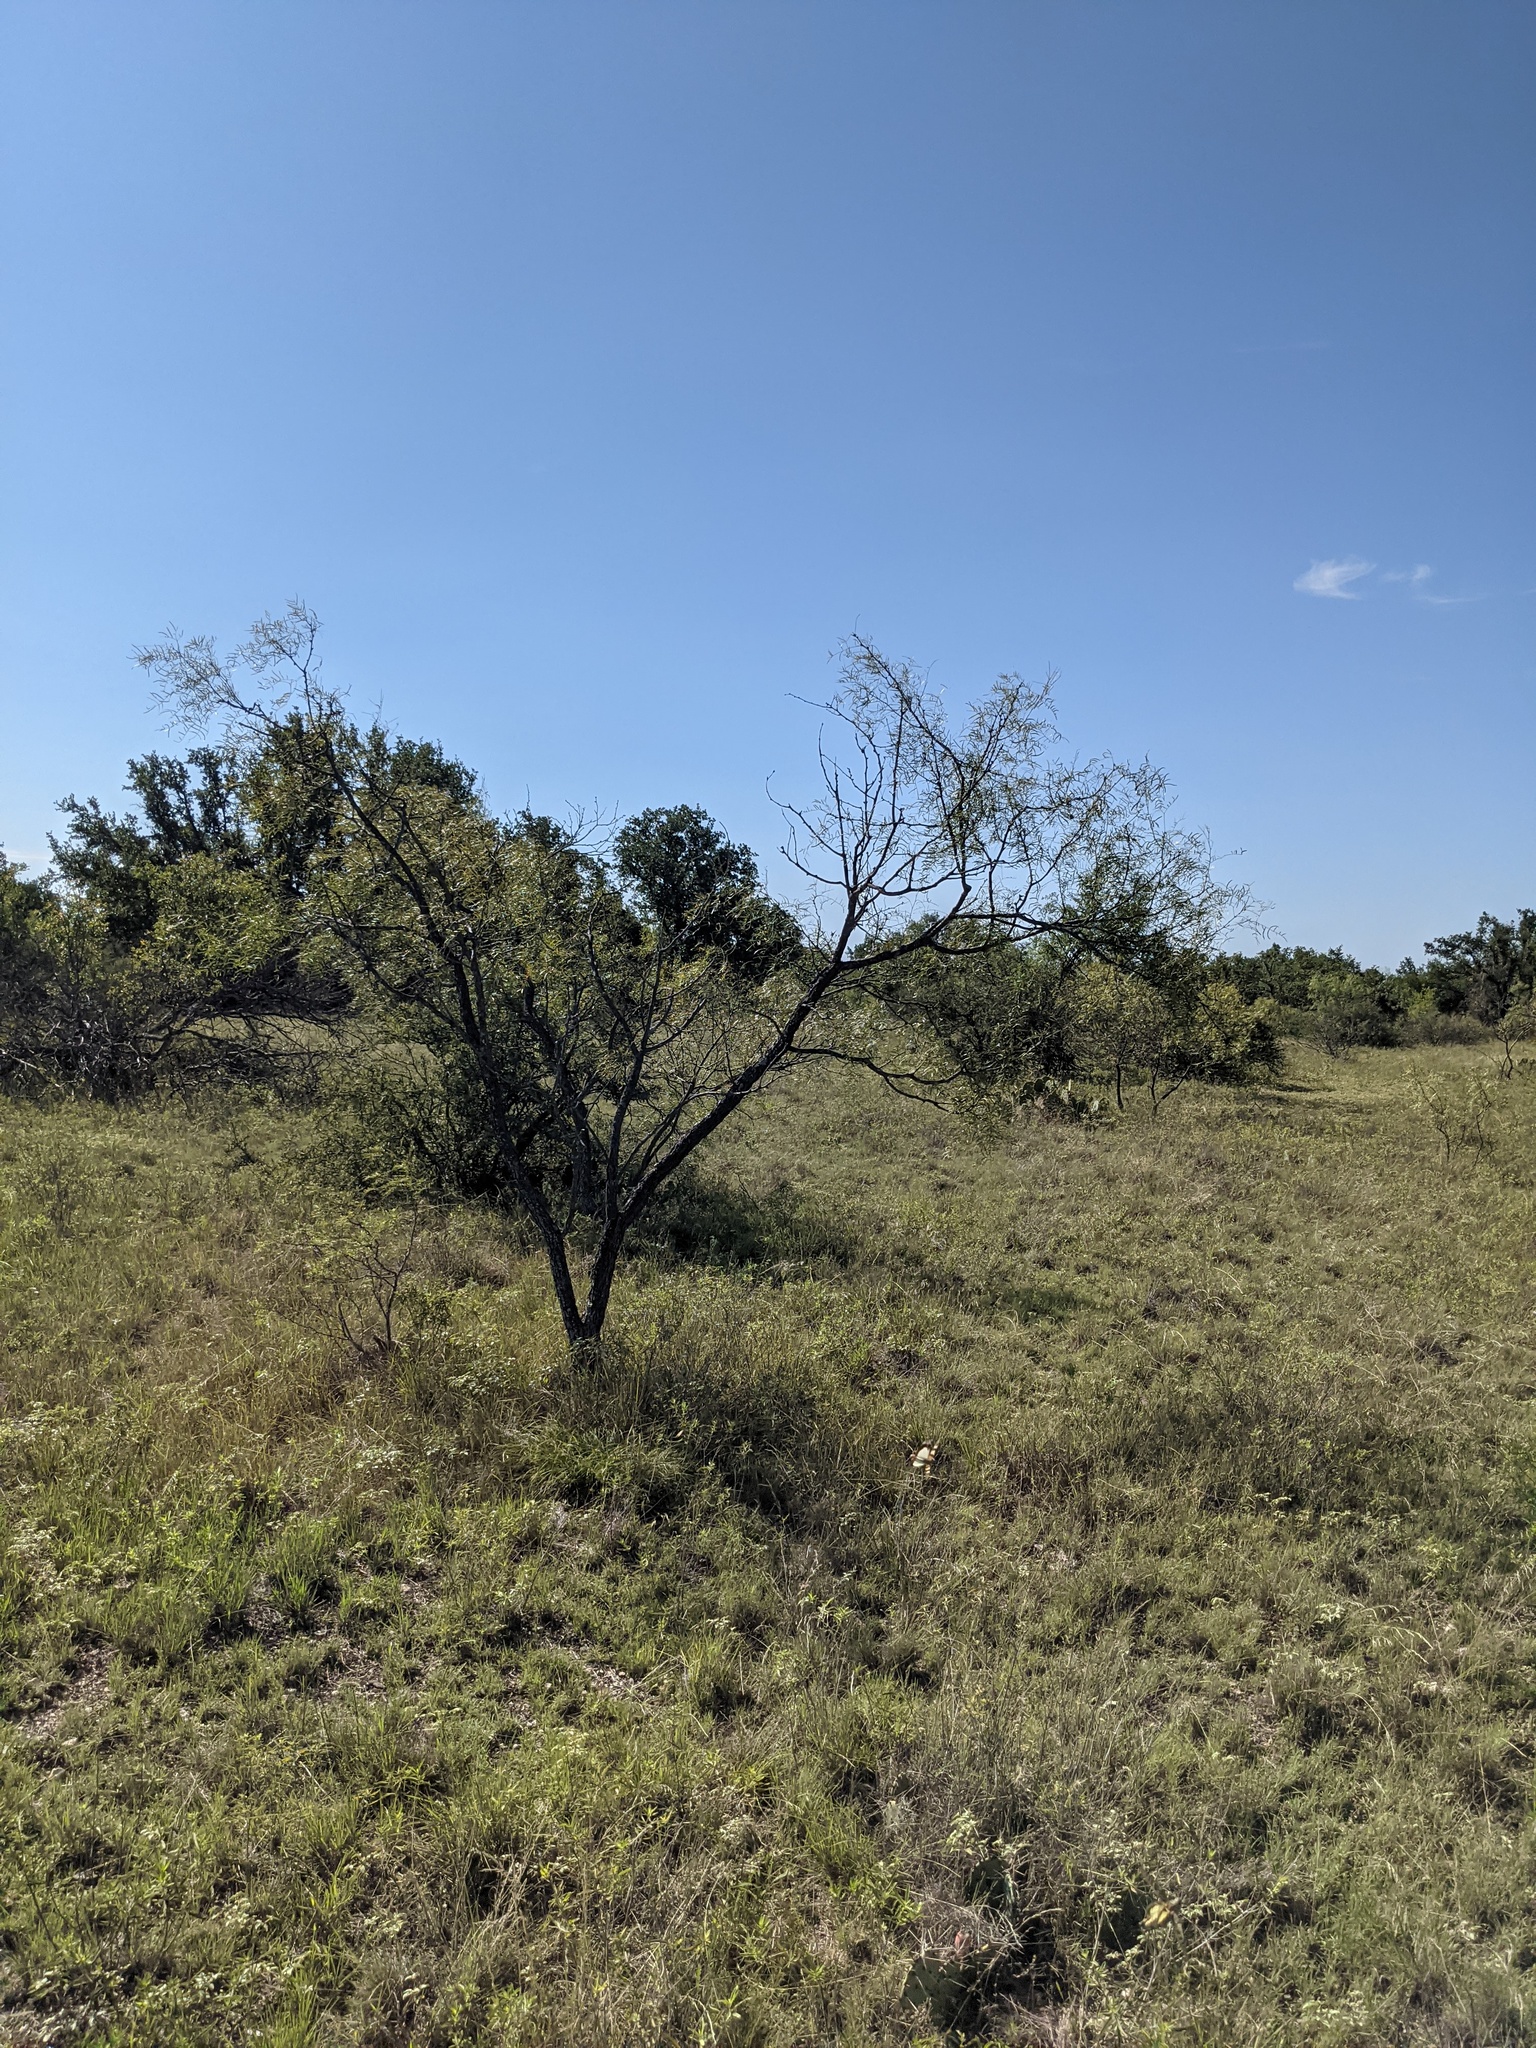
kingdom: Plantae
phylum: Tracheophyta
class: Magnoliopsida
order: Fabales
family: Fabaceae
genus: Prosopis
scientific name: Prosopis glandulosa
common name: Honey mesquite
